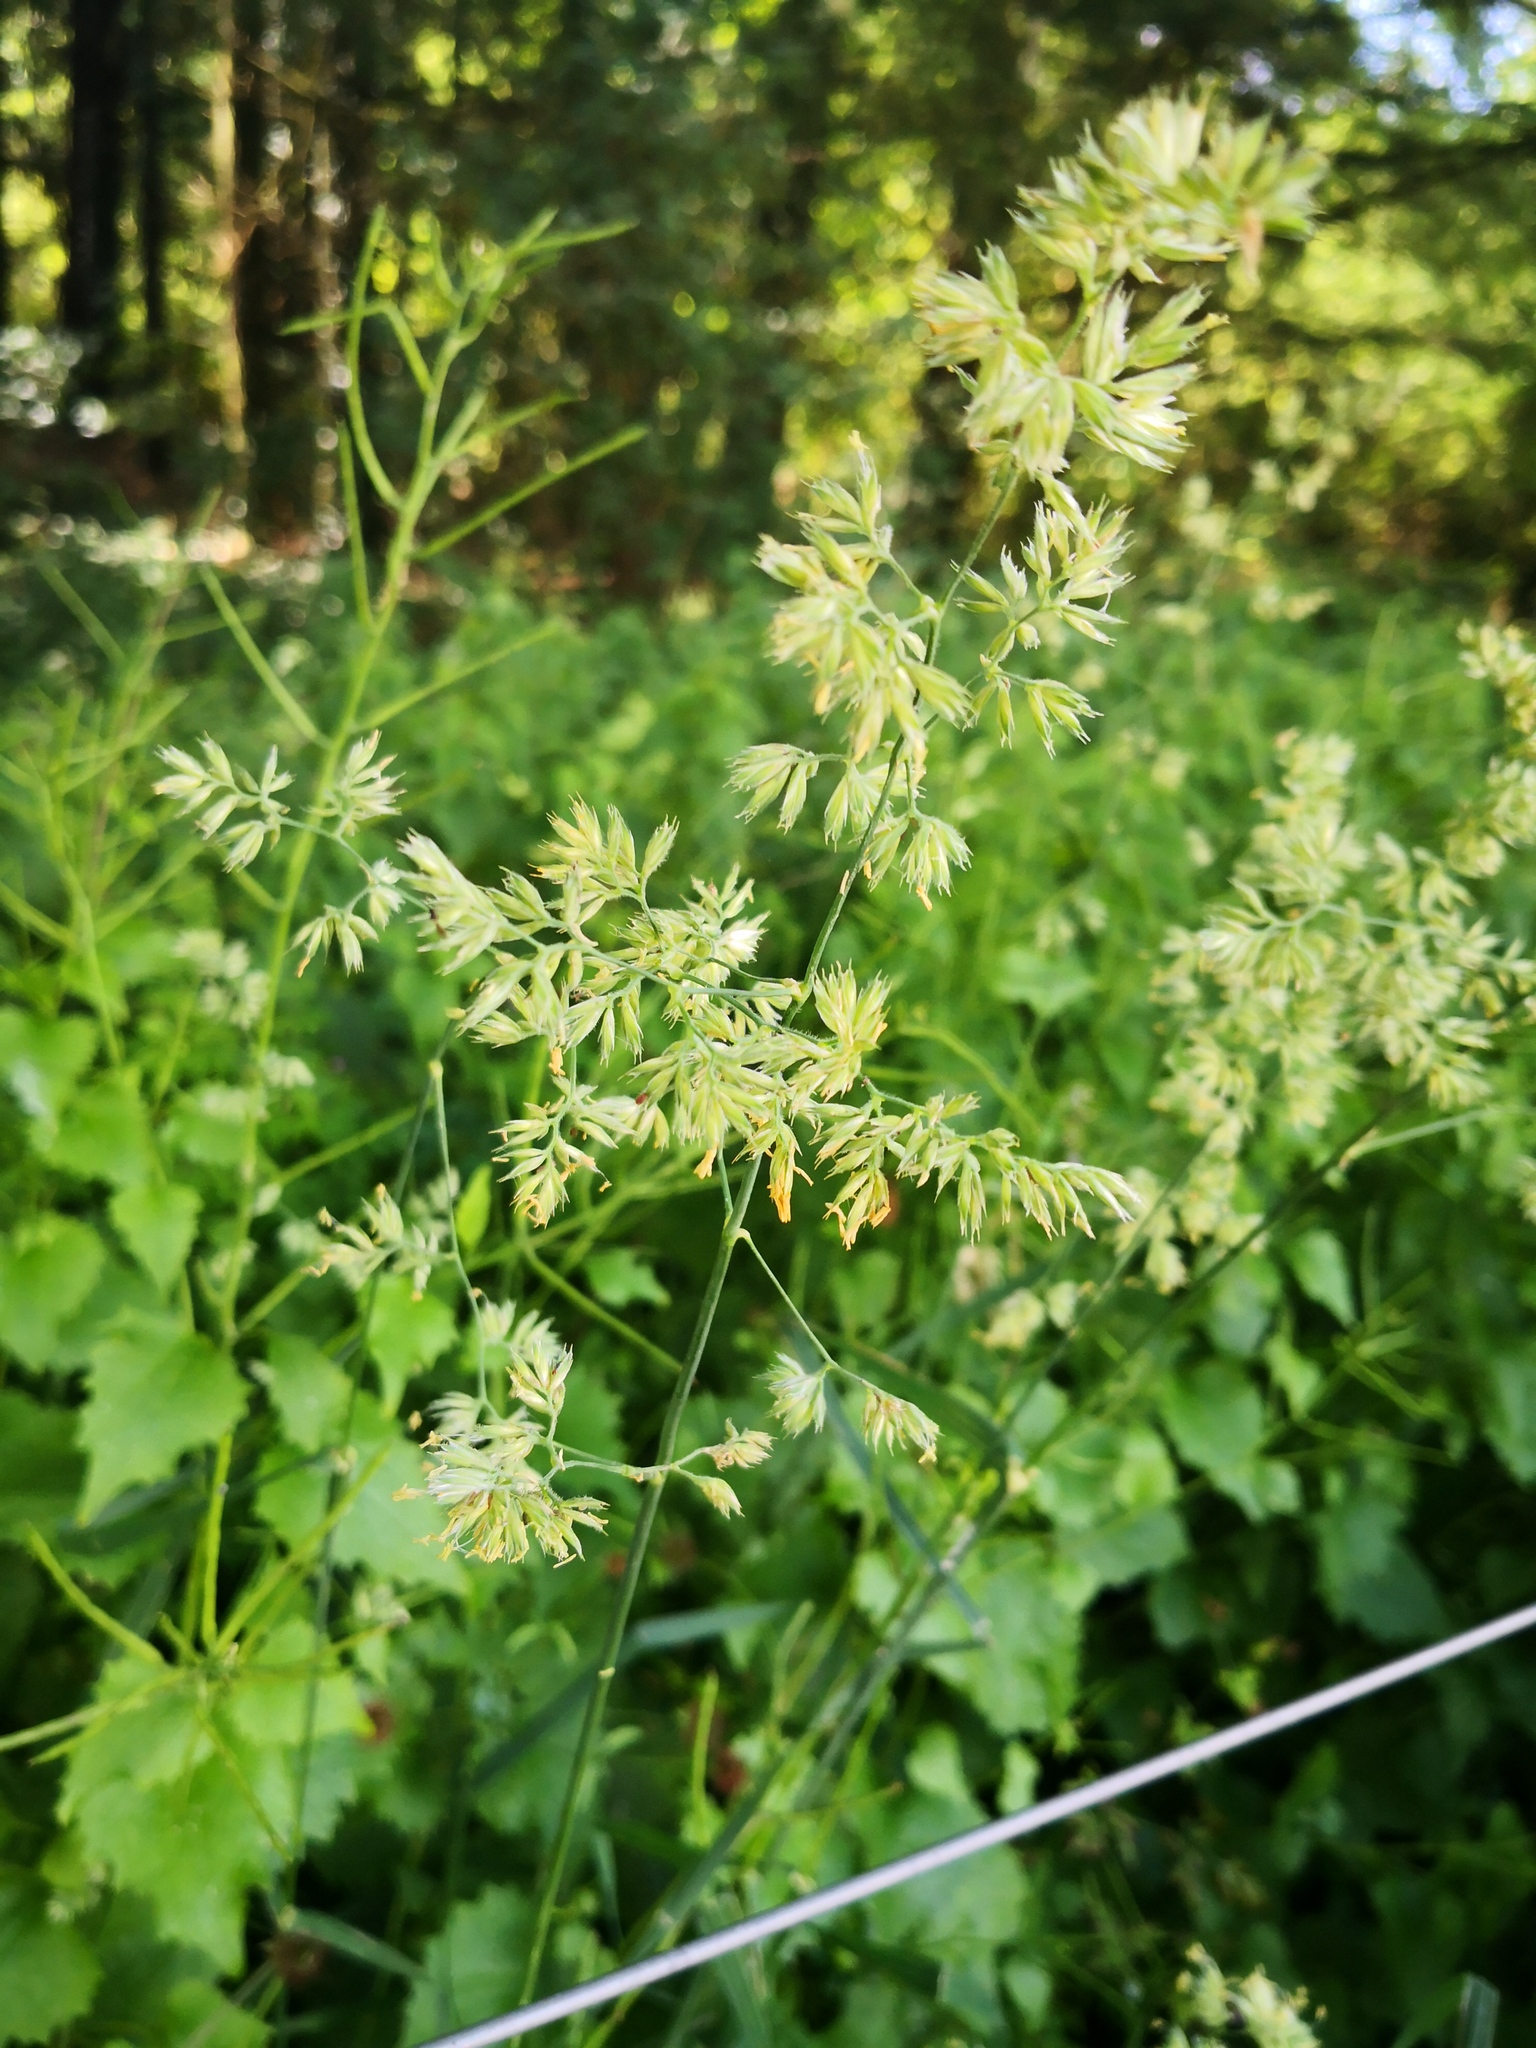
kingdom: Plantae
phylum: Tracheophyta
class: Liliopsida
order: Poales
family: Poaceae
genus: Dactylis
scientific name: Dactylis glomerata
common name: Orchardgrass
